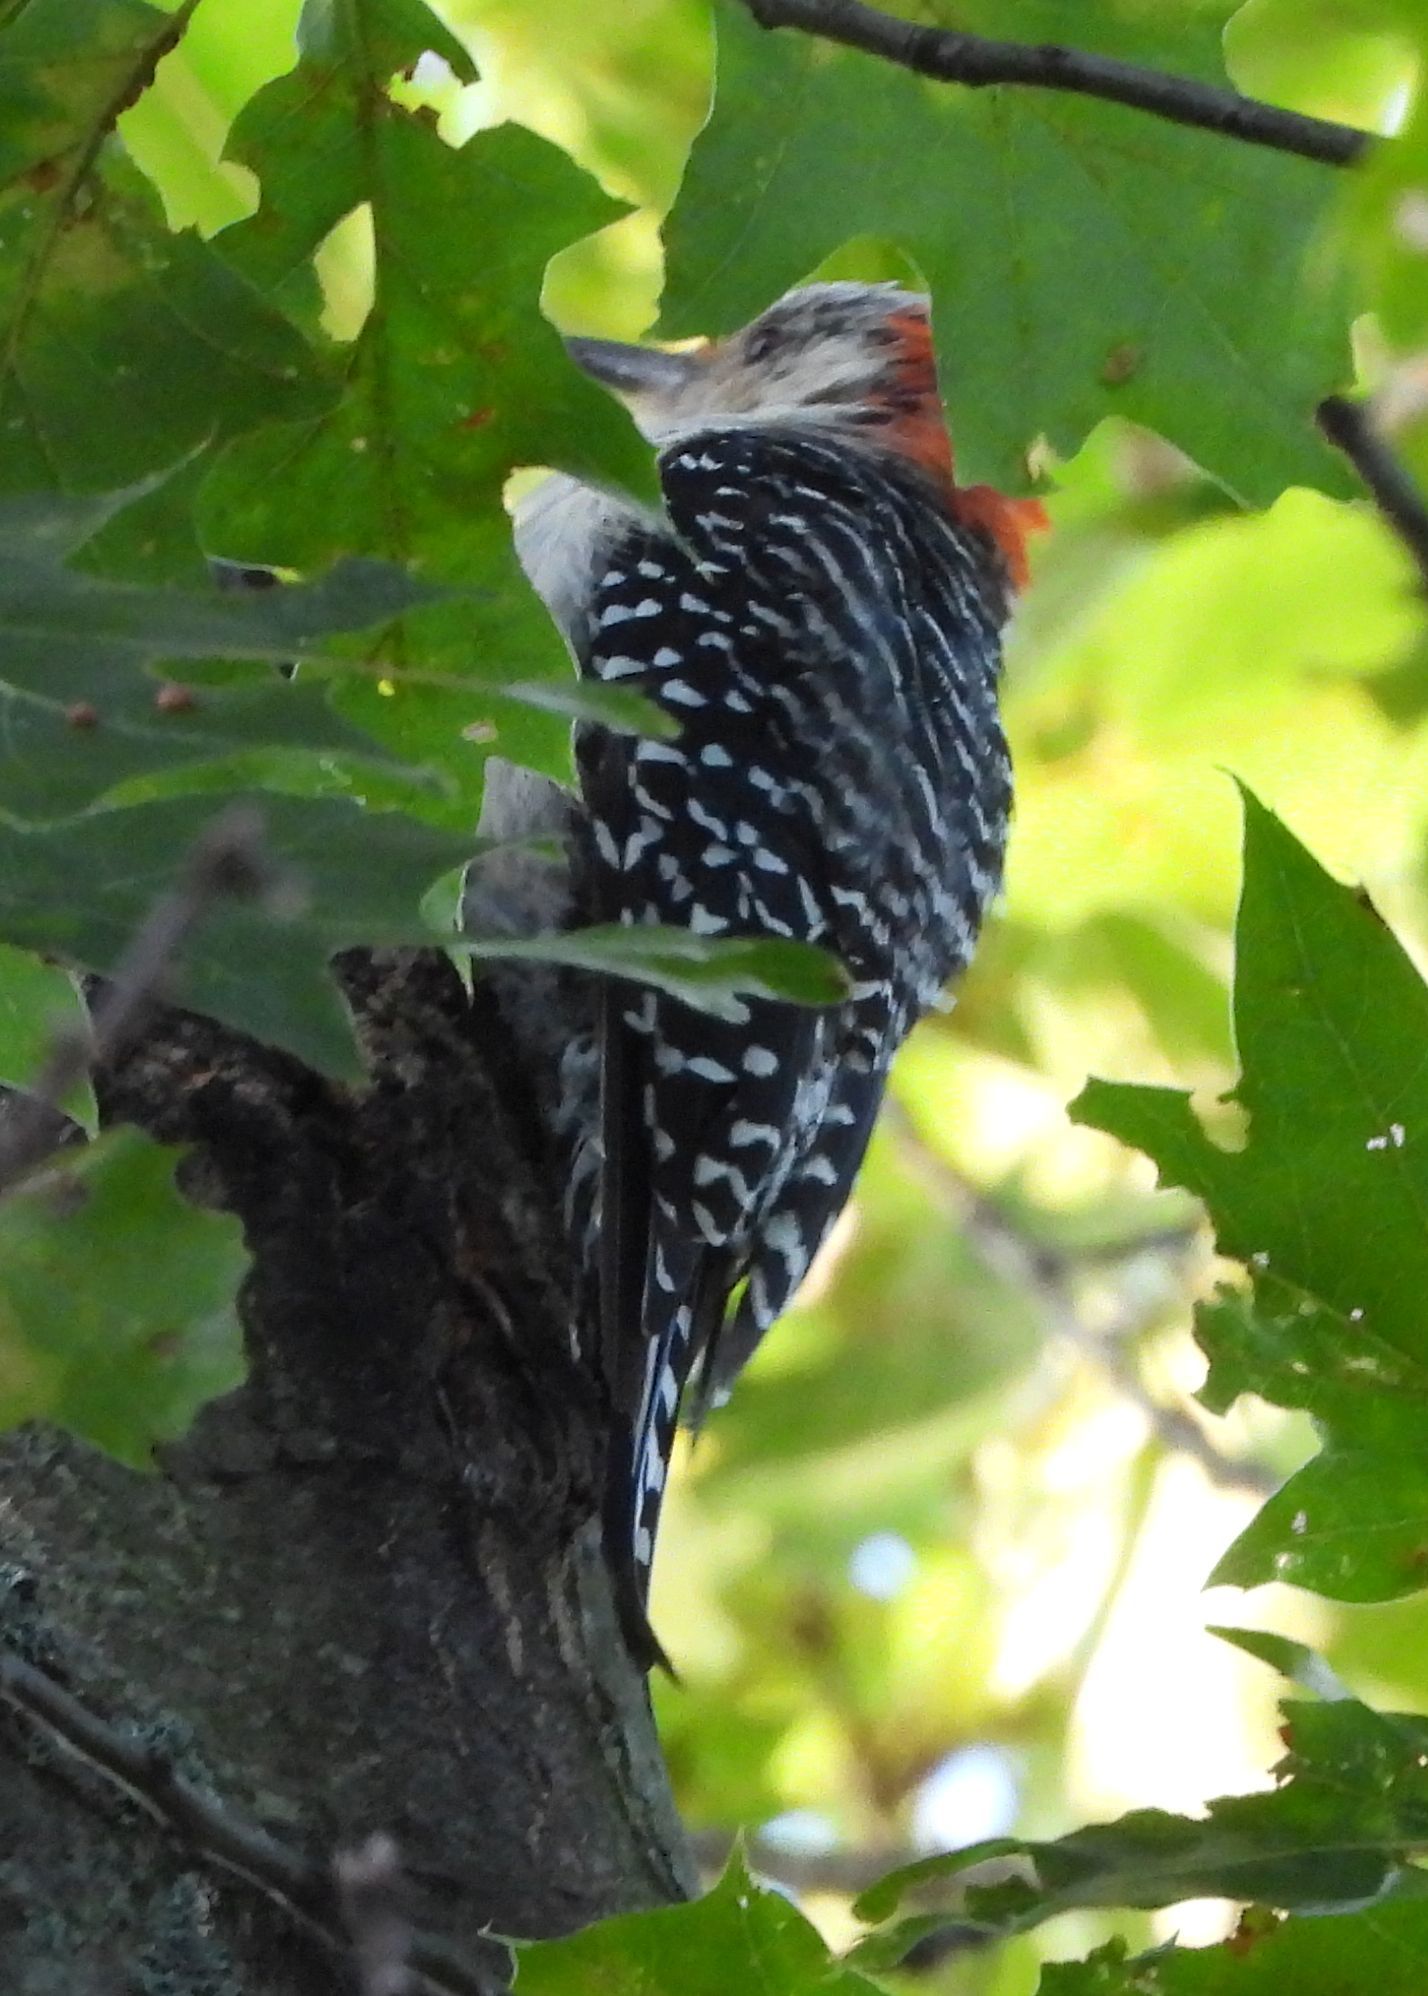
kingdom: Animalia
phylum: Chordata
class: Aves
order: Piciformes
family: Picidae
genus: Melanerpes
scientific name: Melanerpes carolinus
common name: Red-bellied woodpecker
